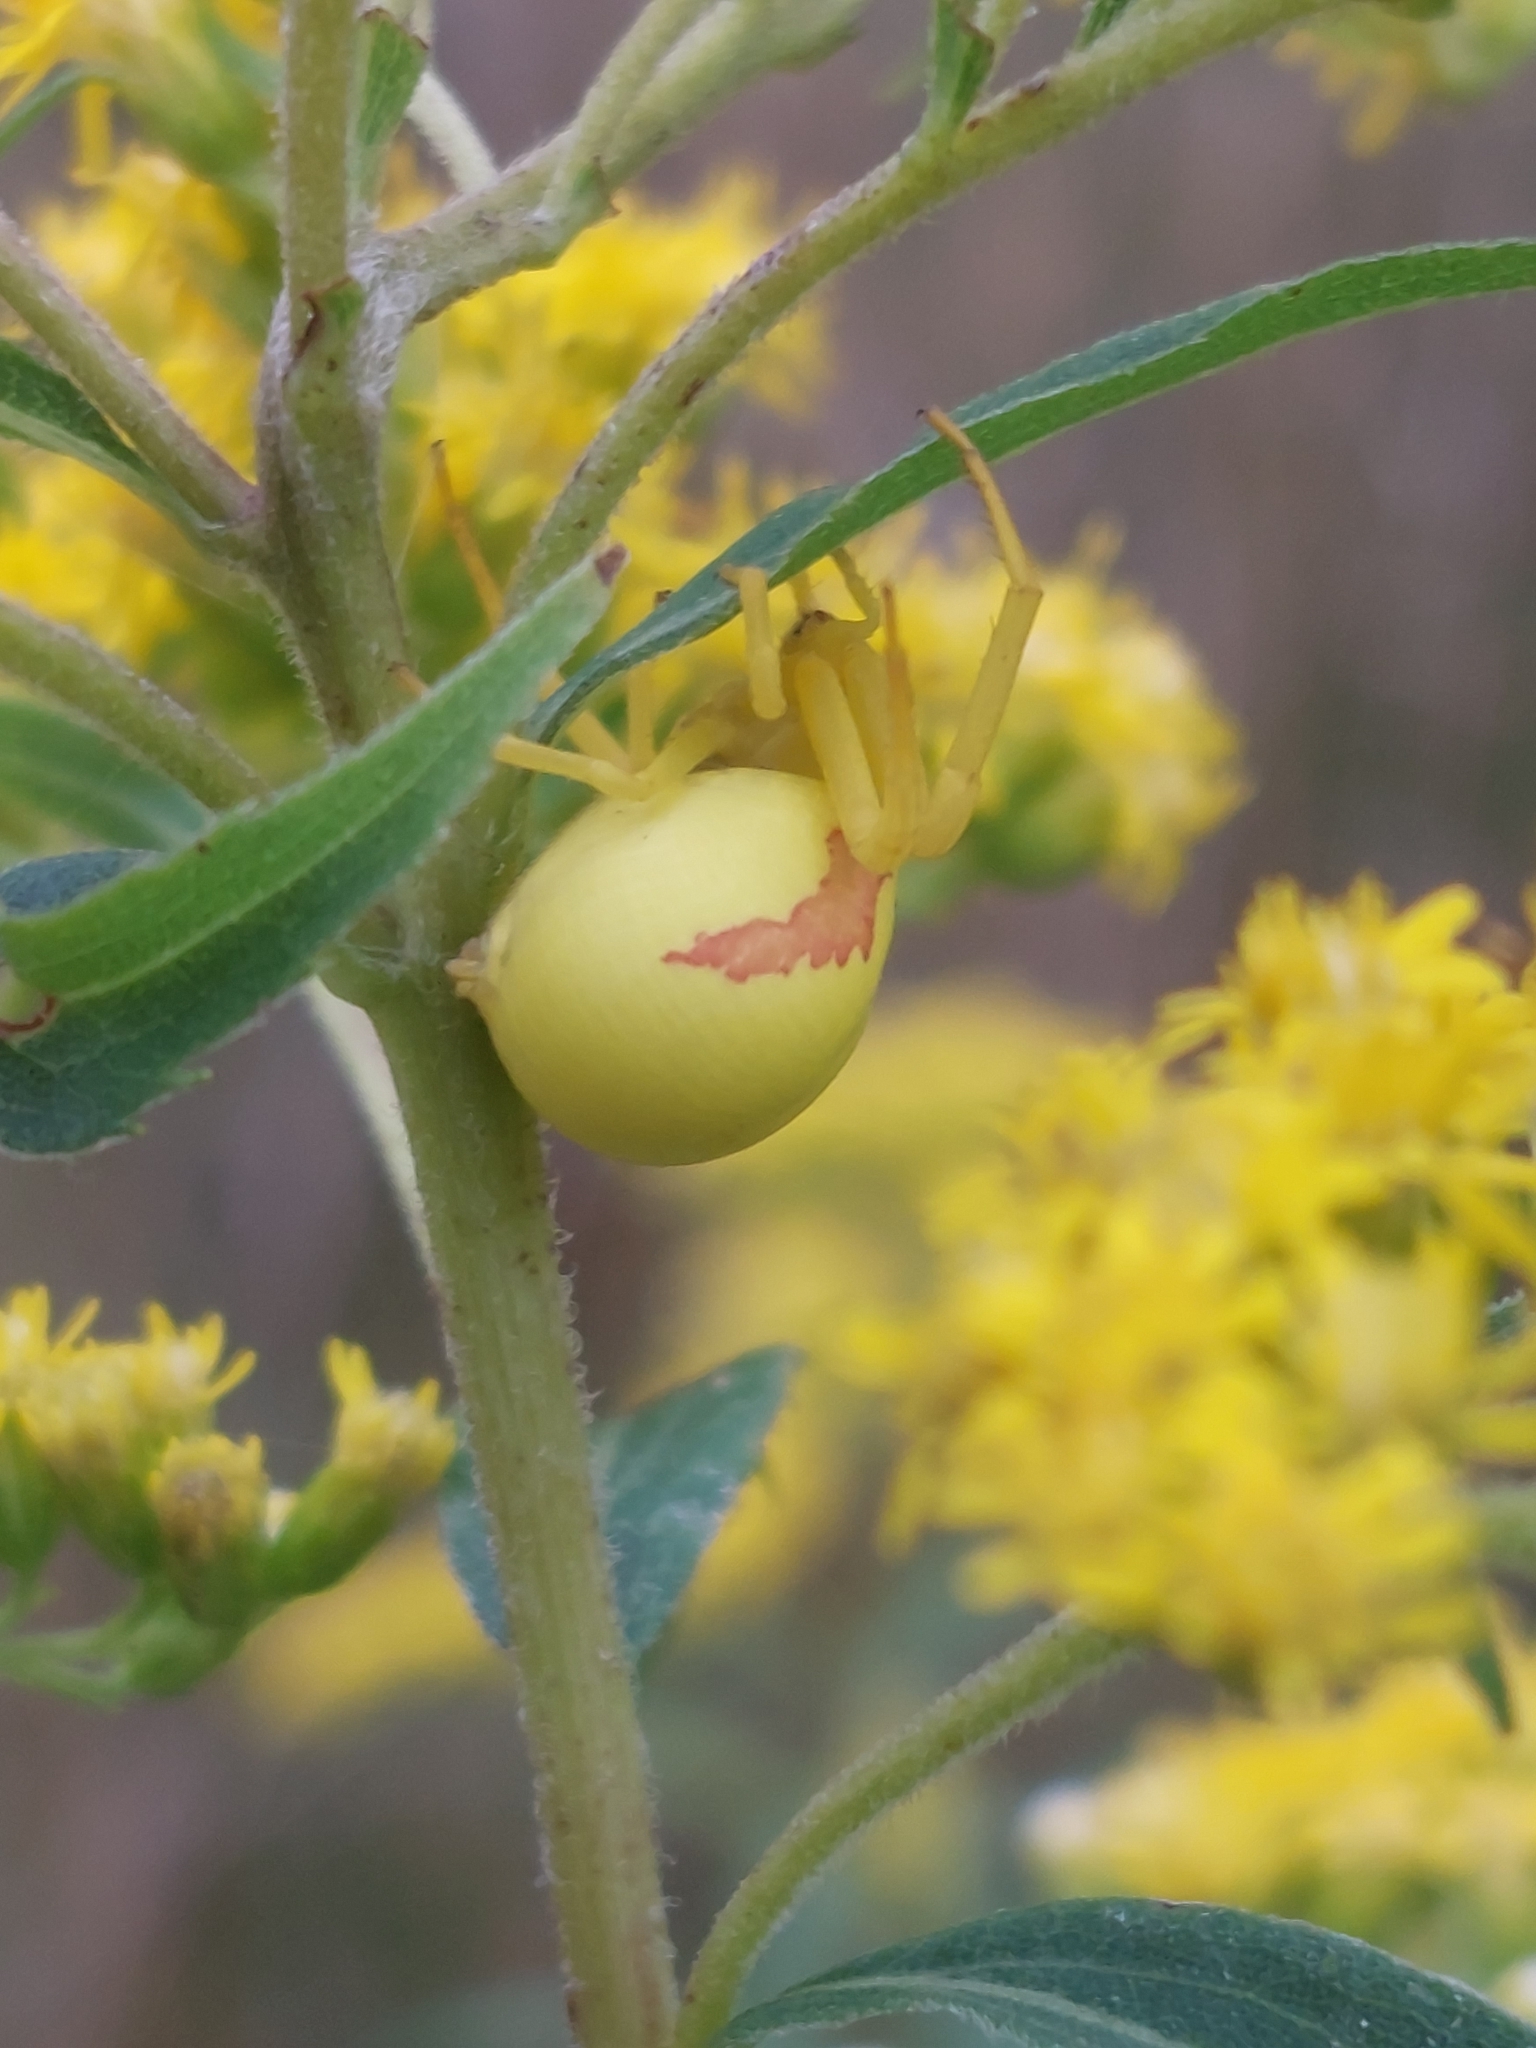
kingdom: Animalia
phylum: Arthropoda
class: Arachnida
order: Araneae
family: Thomisidae
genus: Misumena
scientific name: Misumena vatia
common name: Goldenrod crab spider
